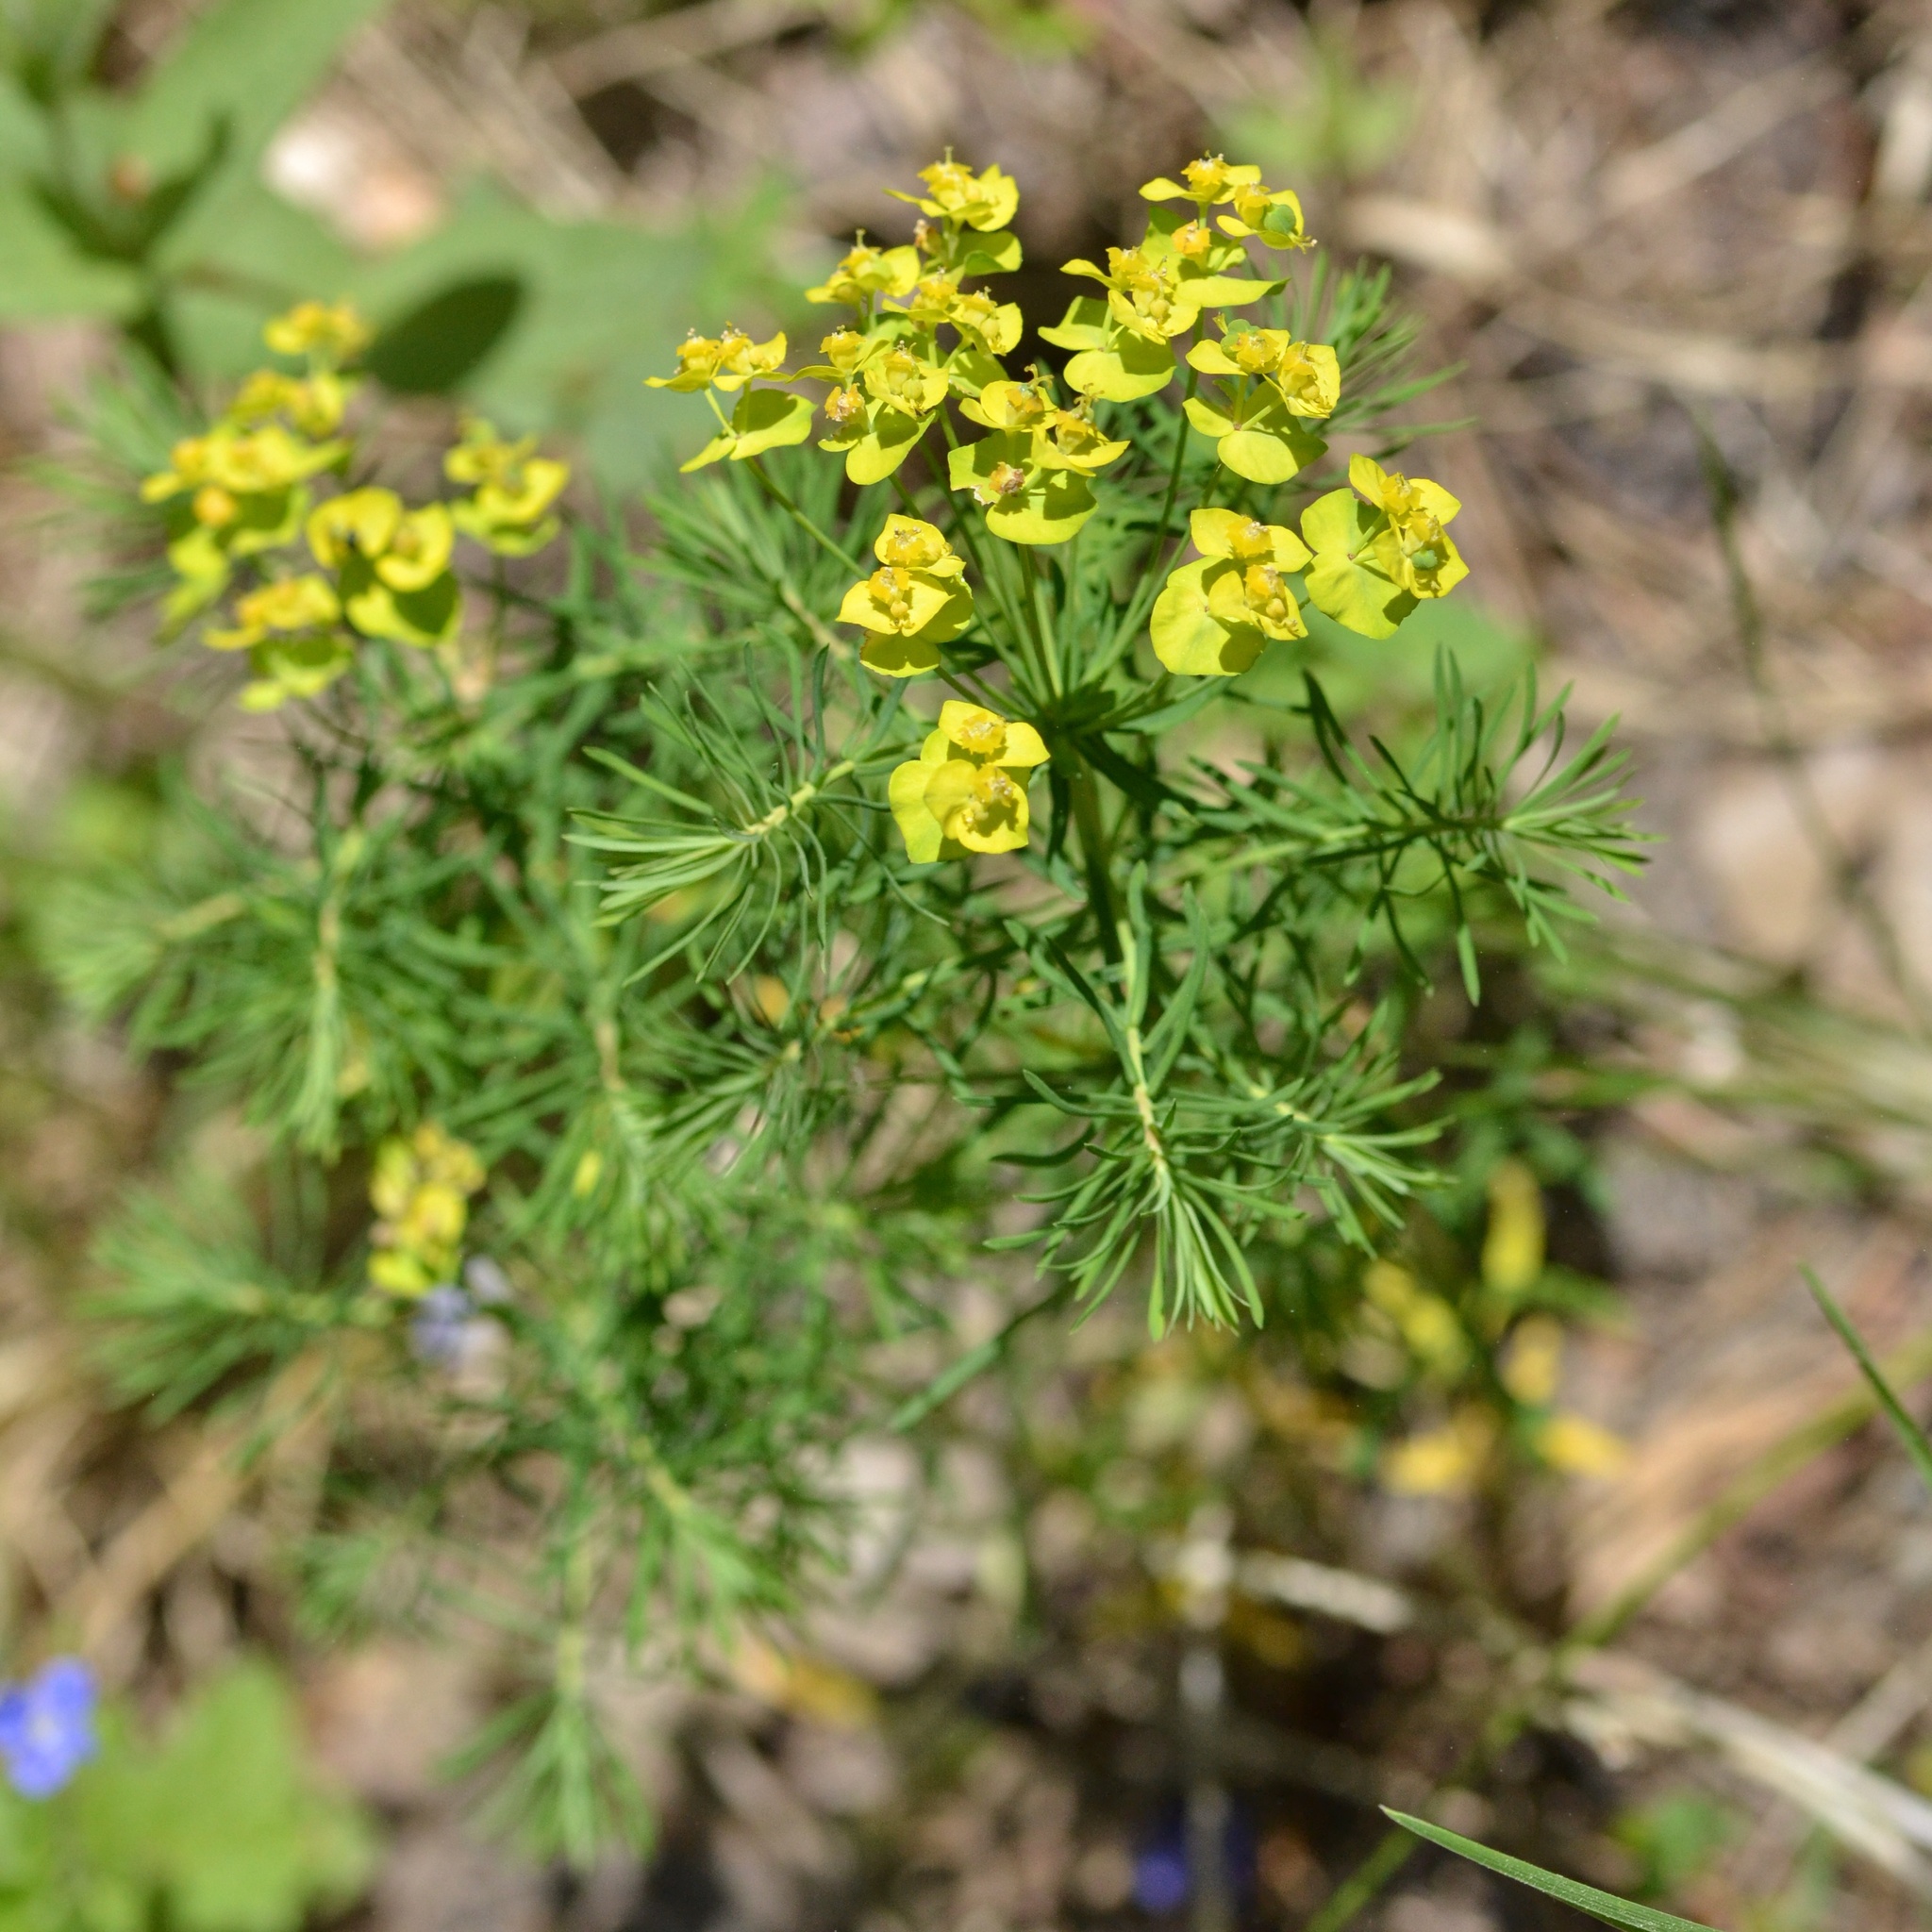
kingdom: Plantae
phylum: Tracheophyta
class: Magnoliopsida
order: Malpighiales
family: Euphorbiaceae
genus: Euphorbia
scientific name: Euphorbia cyparissias
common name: Cypress spurge
